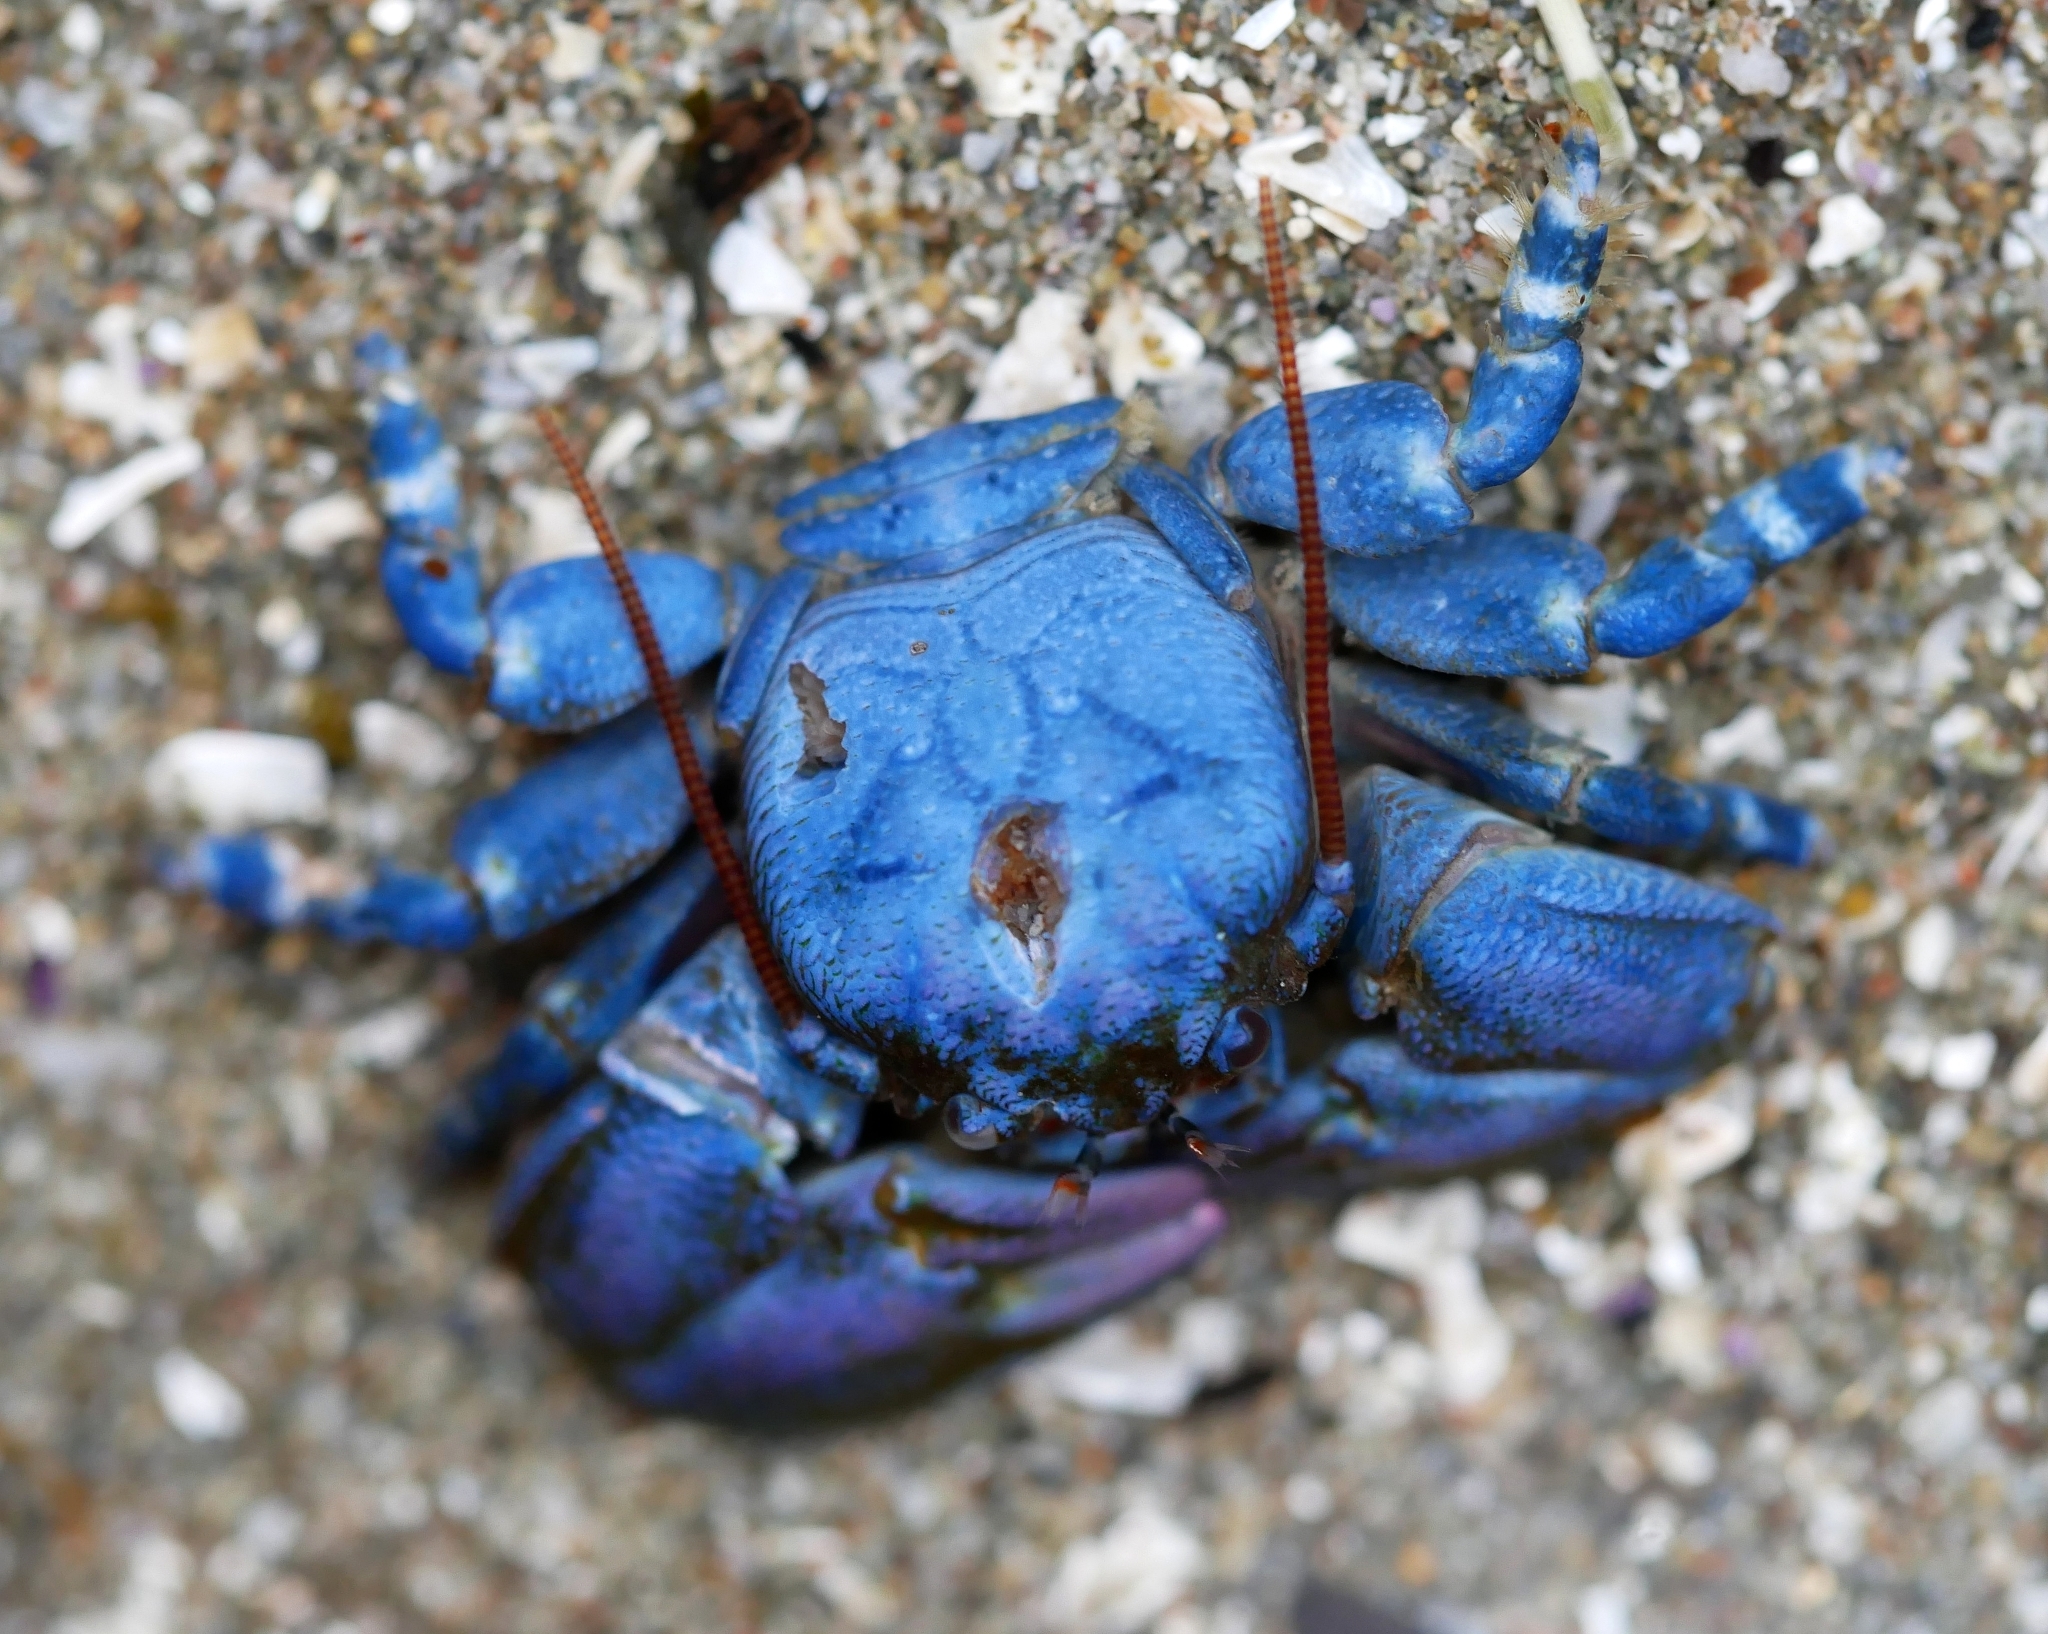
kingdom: Animalia
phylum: Arthropoda
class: Malacostraca
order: Decapoda
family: Porcellanidae
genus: Petrolisthes
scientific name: Petrolisthes cinctipes
